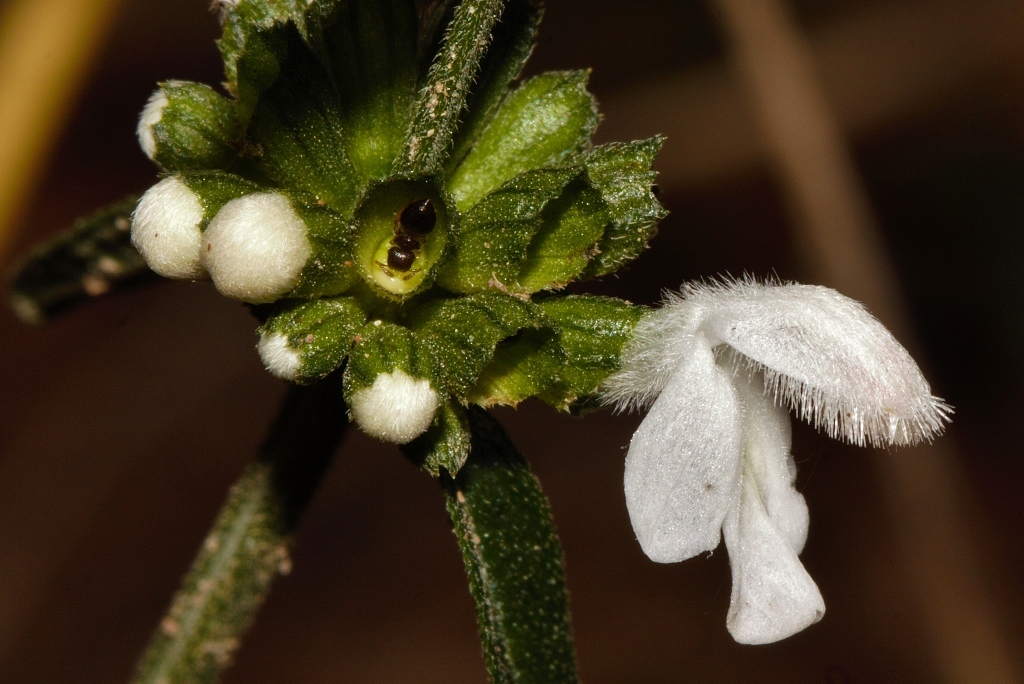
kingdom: Plantae
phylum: Tracheophyta
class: Magnoliopsida
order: Lamiales
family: Lamiaceae
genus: Leucas
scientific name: Leucas milanjiana
